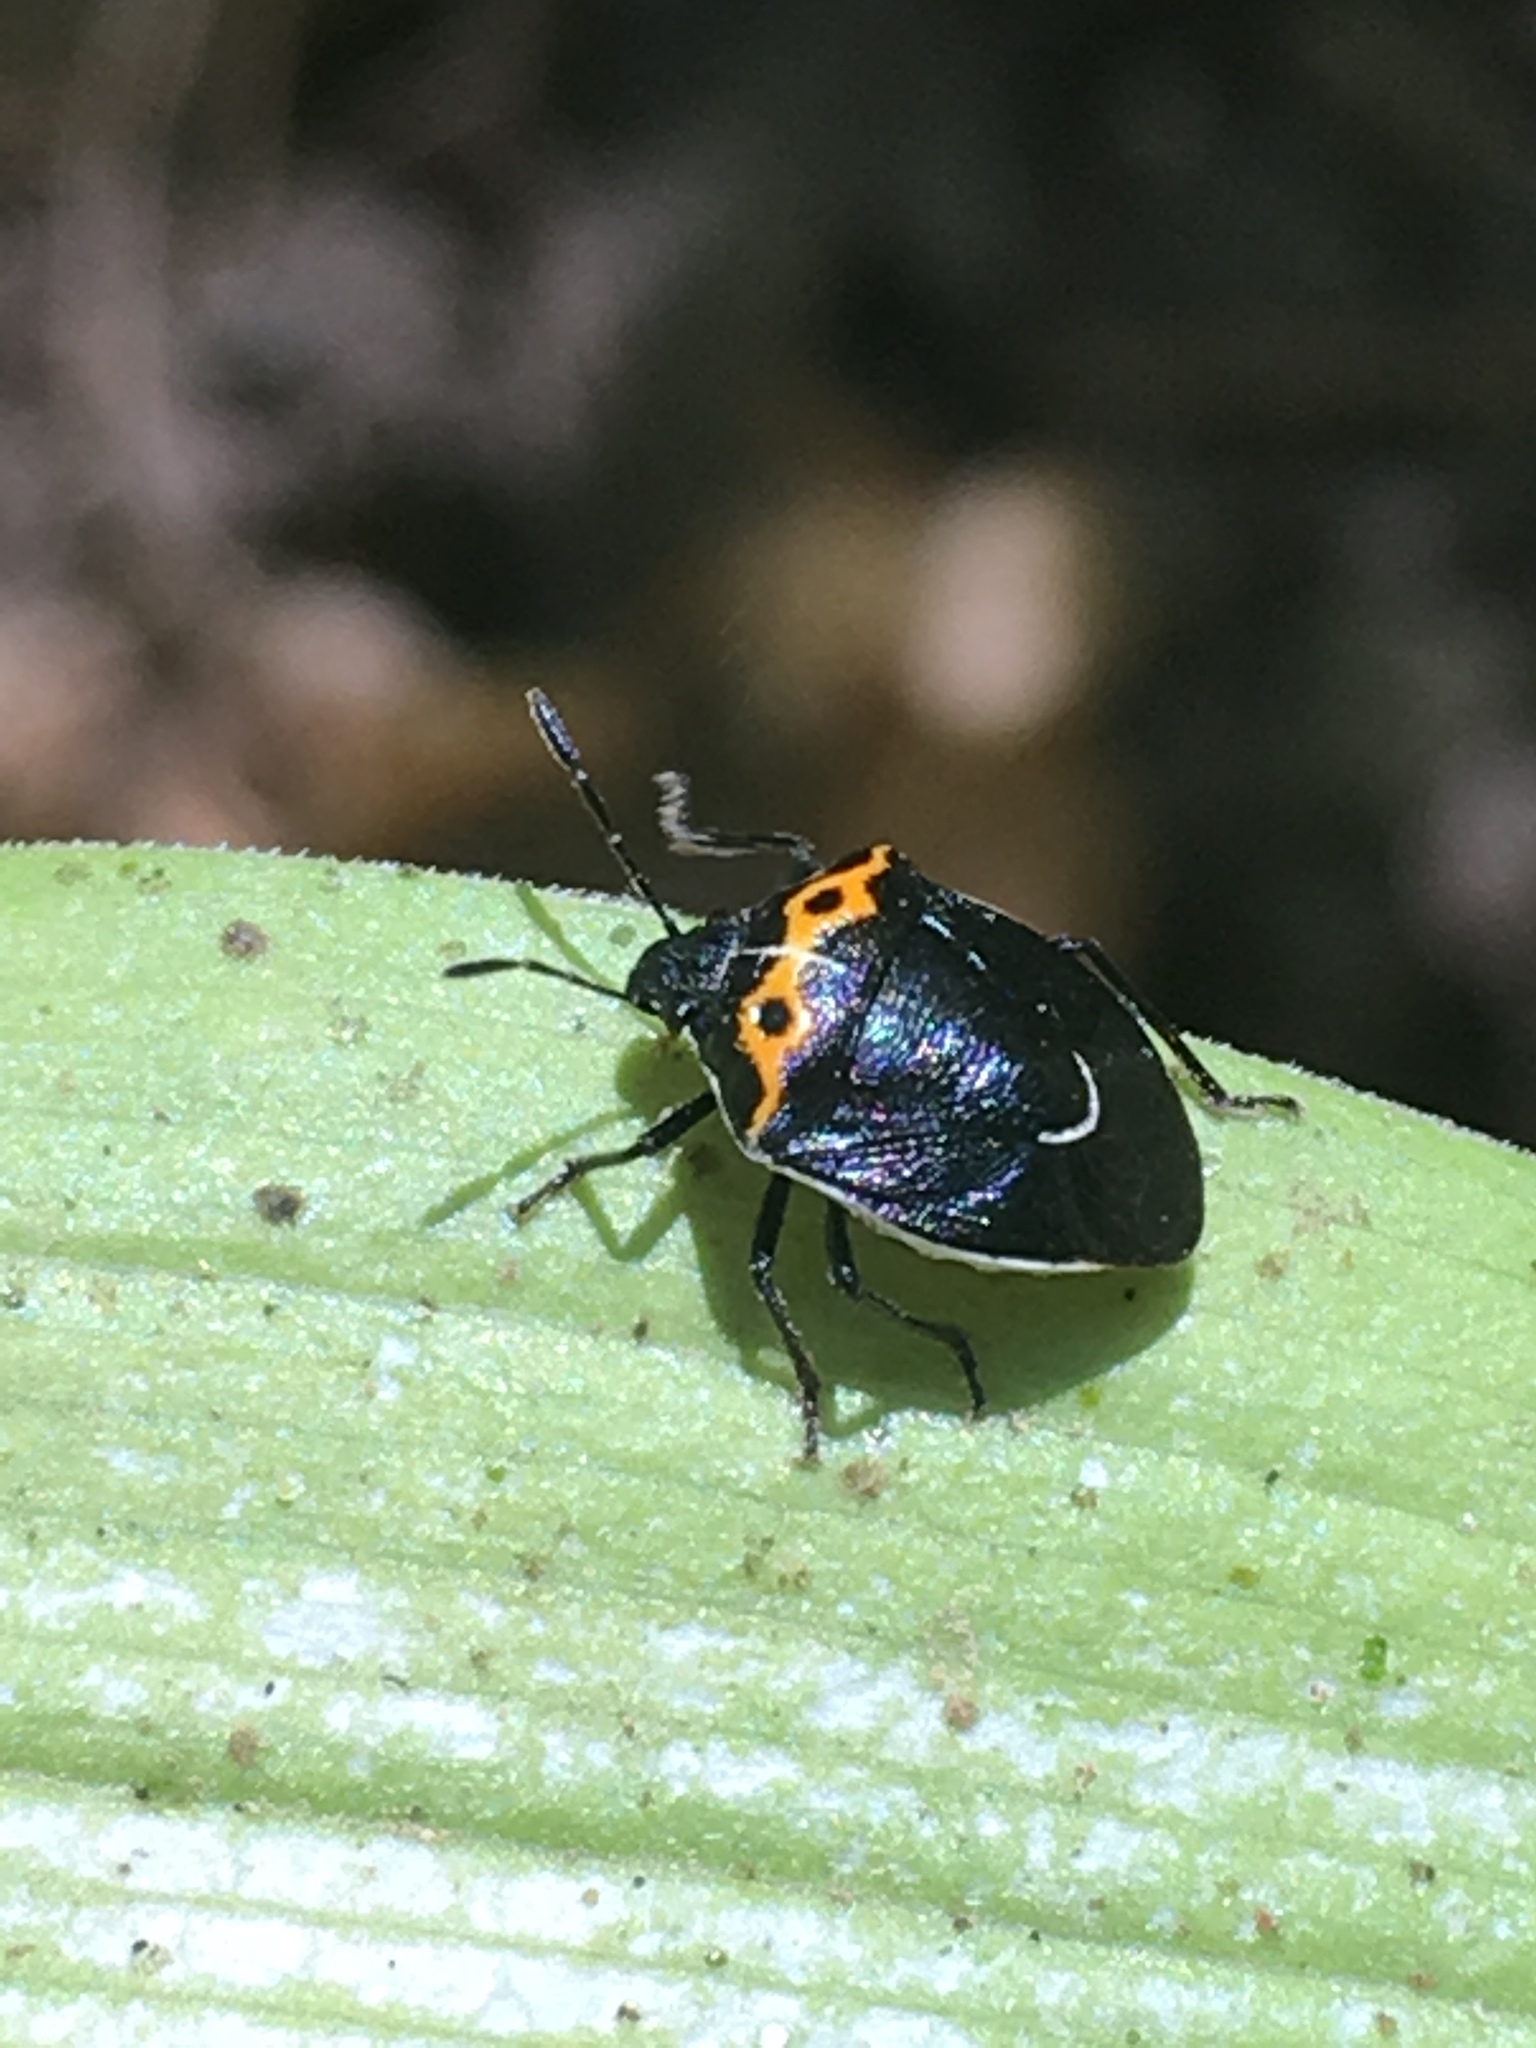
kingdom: Animalia
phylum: Arthropoda
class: Insecta
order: Hemiptera
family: Pentatomidae
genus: Cosmopepla
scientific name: Cosmopepla conspicillaris
